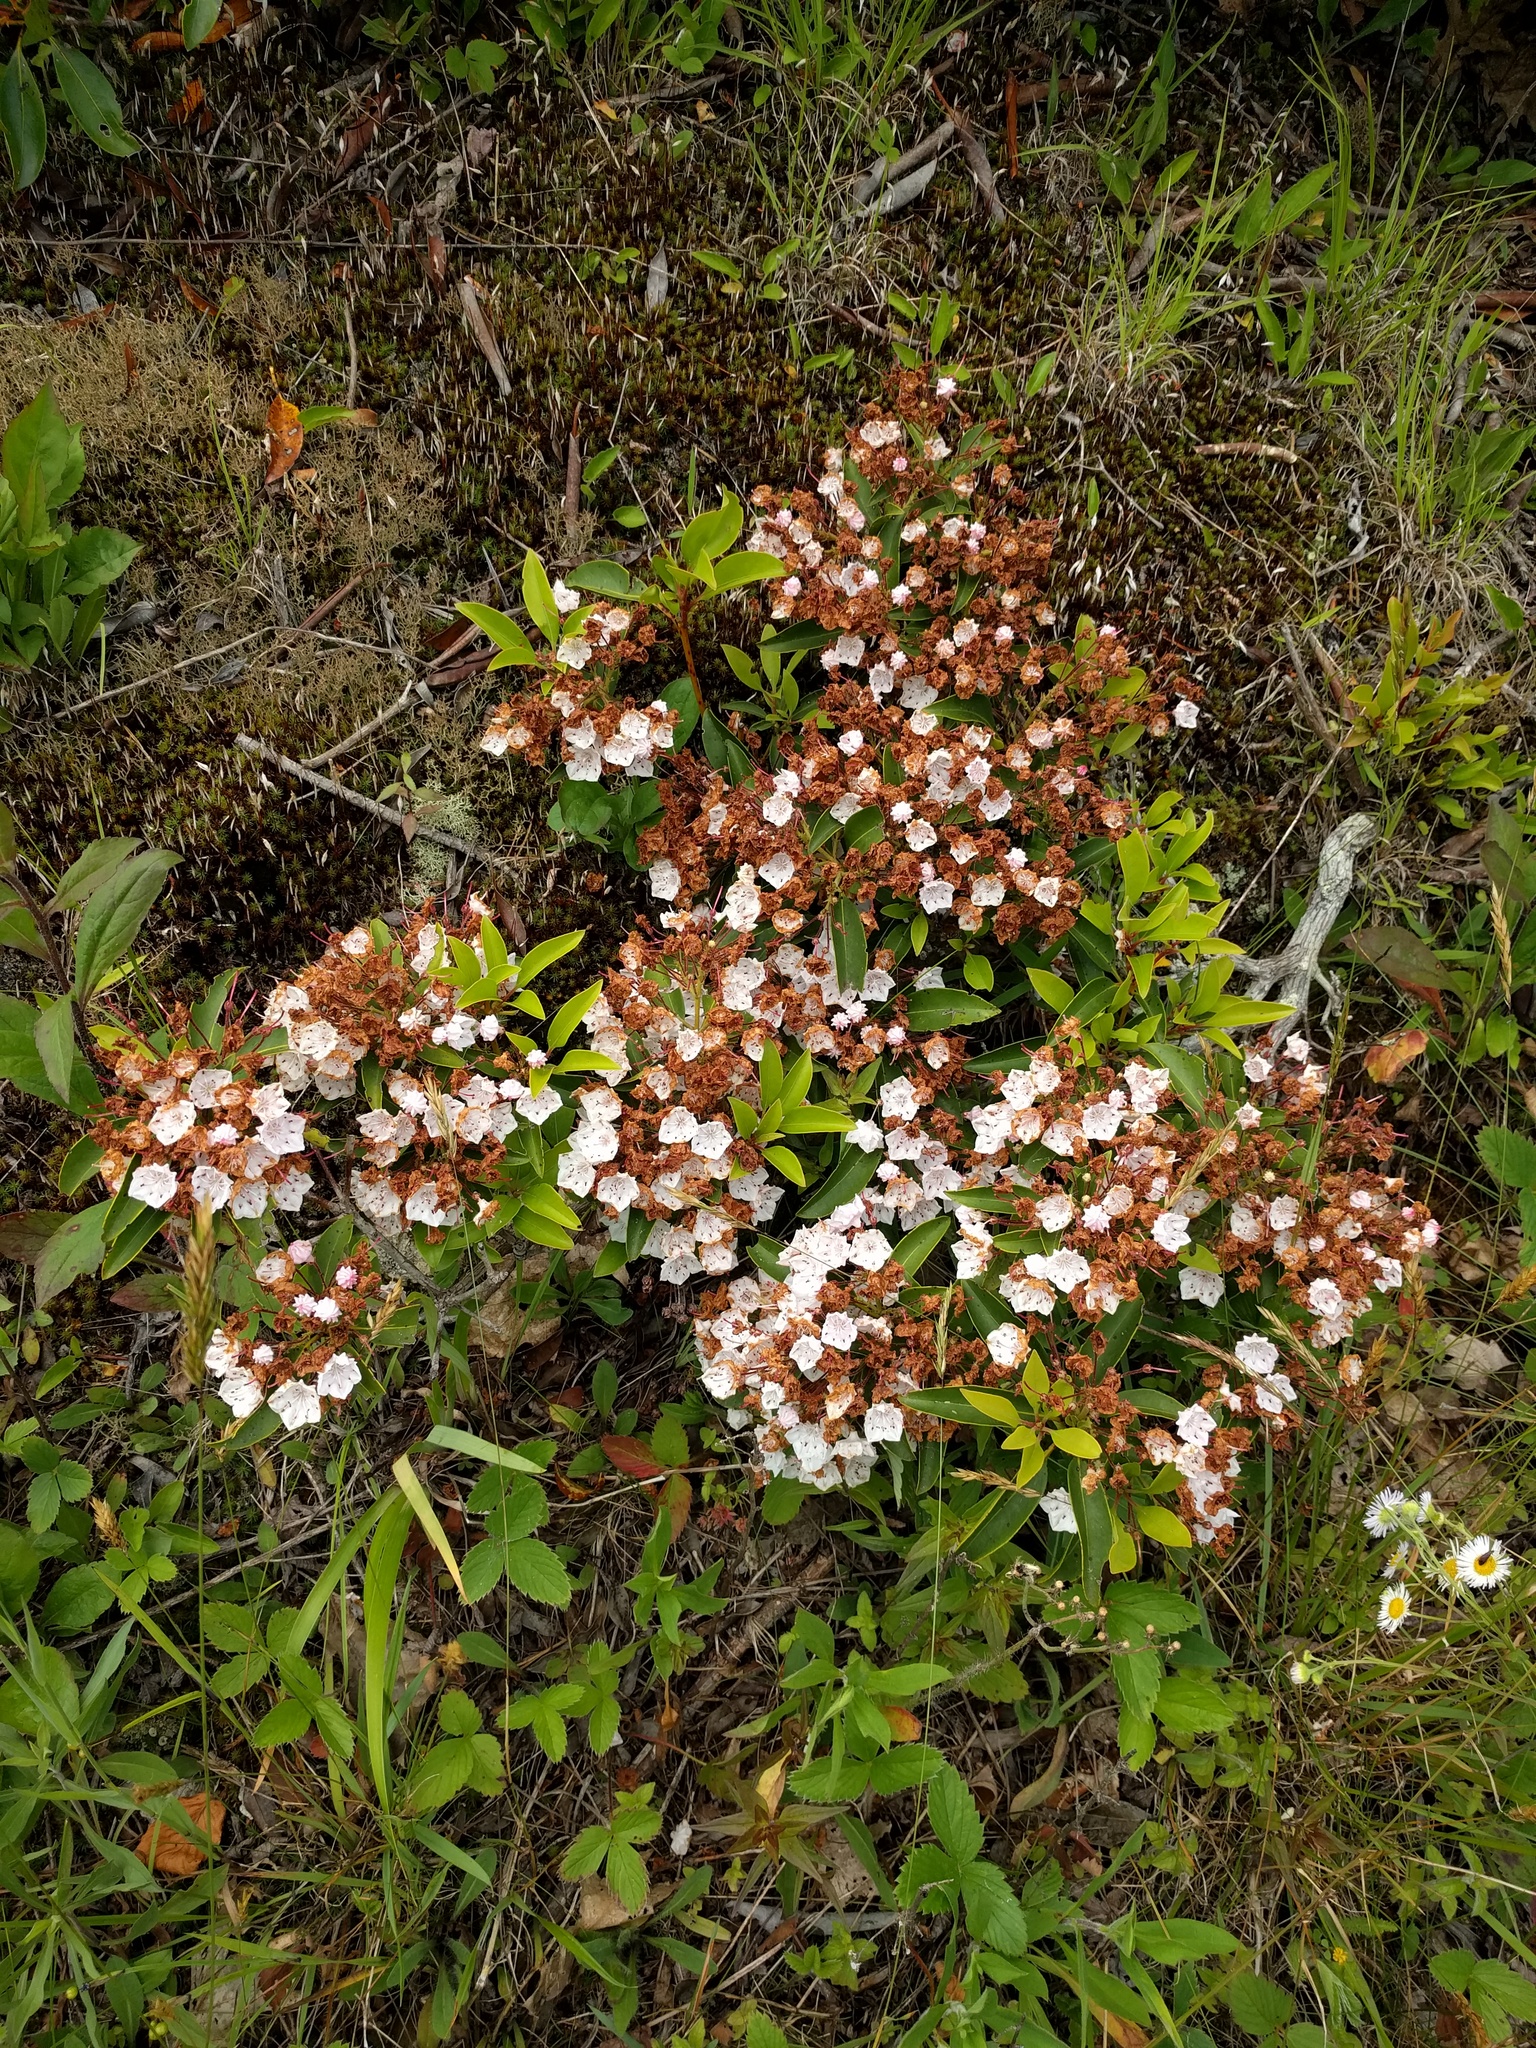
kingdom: Plantae
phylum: Tracheophyta
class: Magnoliopsida
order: Ericales
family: Ericaceae
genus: Kalmia
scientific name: Kalmia latifolia
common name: Mountain-laurel
